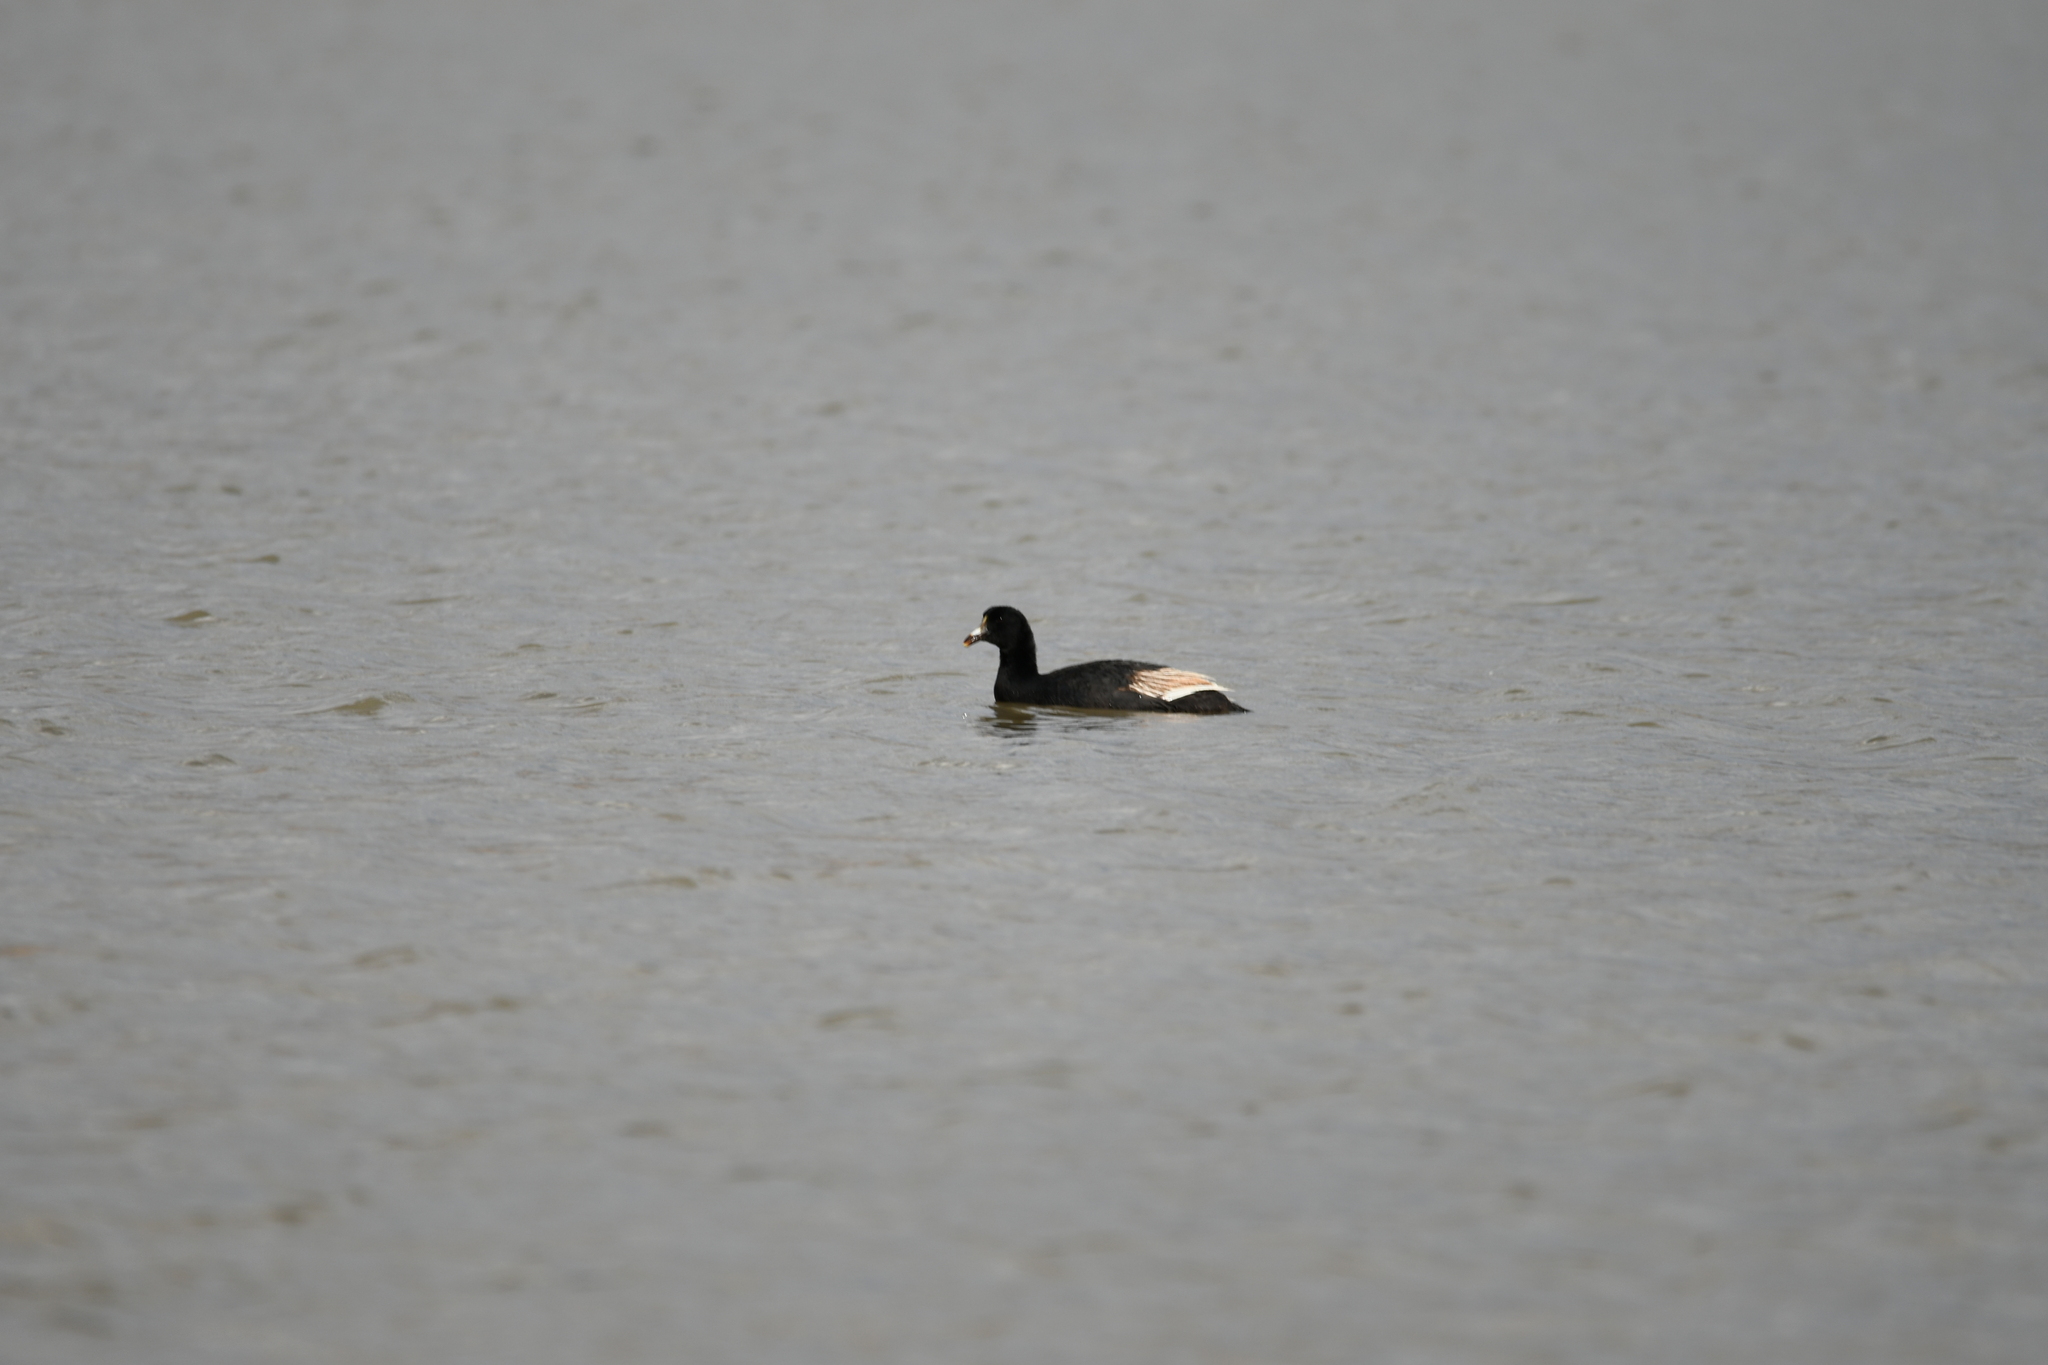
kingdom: Animalia
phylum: Chordata
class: Aves
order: Gruiformes
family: Rallidae
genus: Fulica
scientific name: Fulica gigantea
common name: Giant coot
